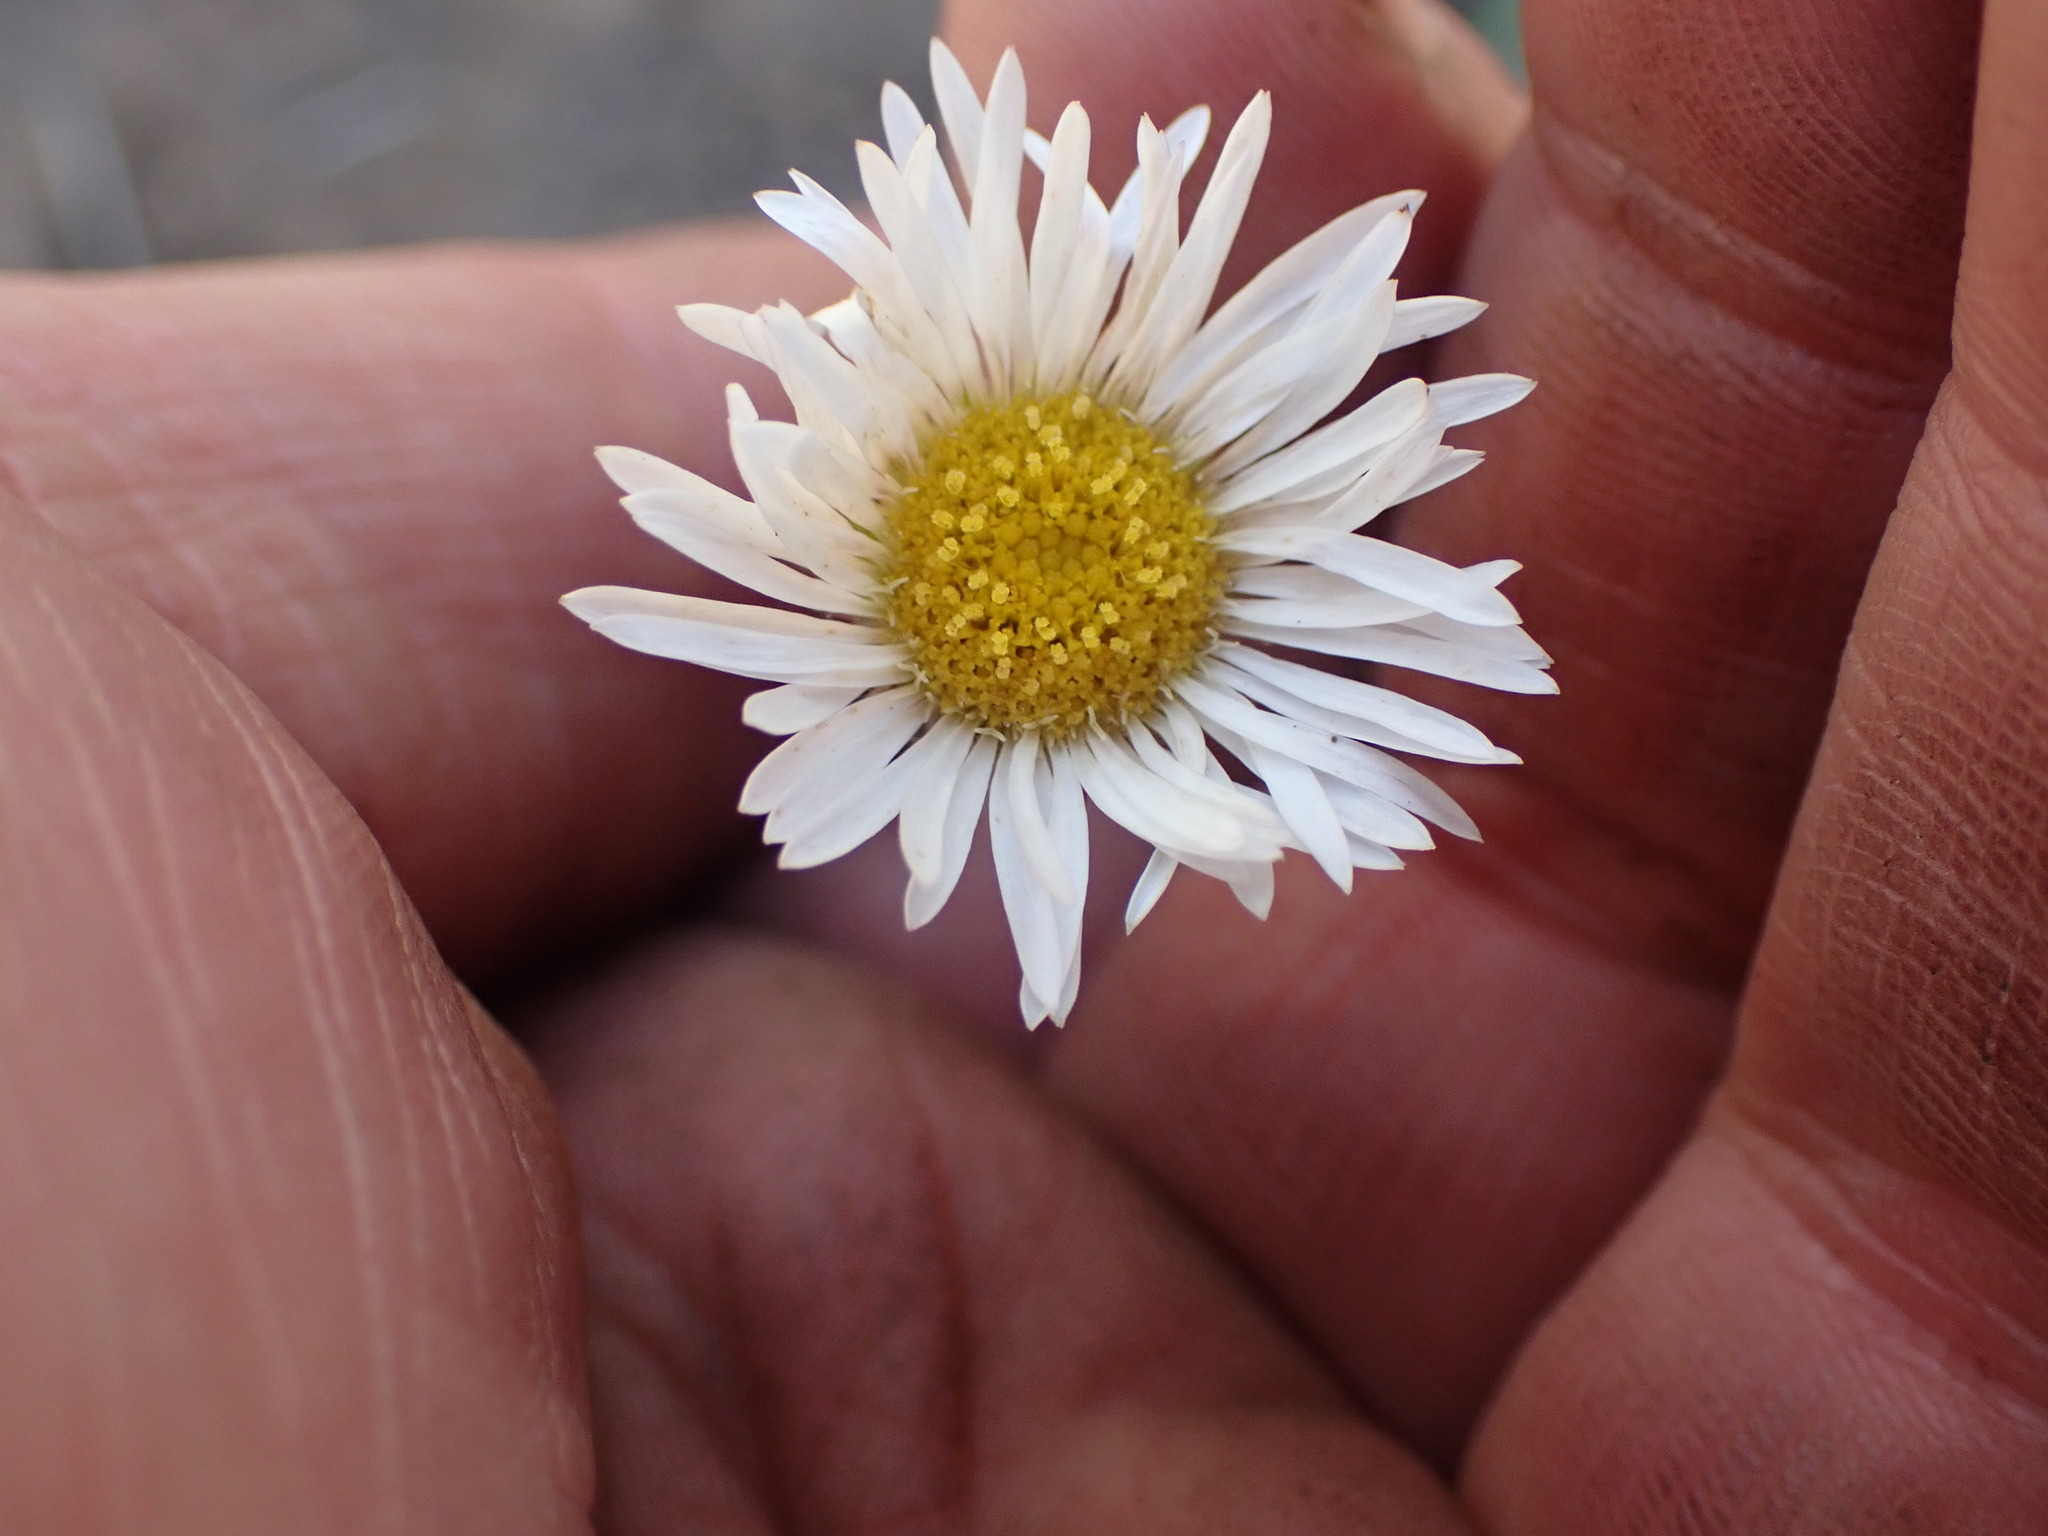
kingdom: Plantae
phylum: Tracheophyta
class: Magnoliopsida
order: Asterales
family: Asteraceae
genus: Erigeron
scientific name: Erigeron compositus
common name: Dwarf mountain fleabane
